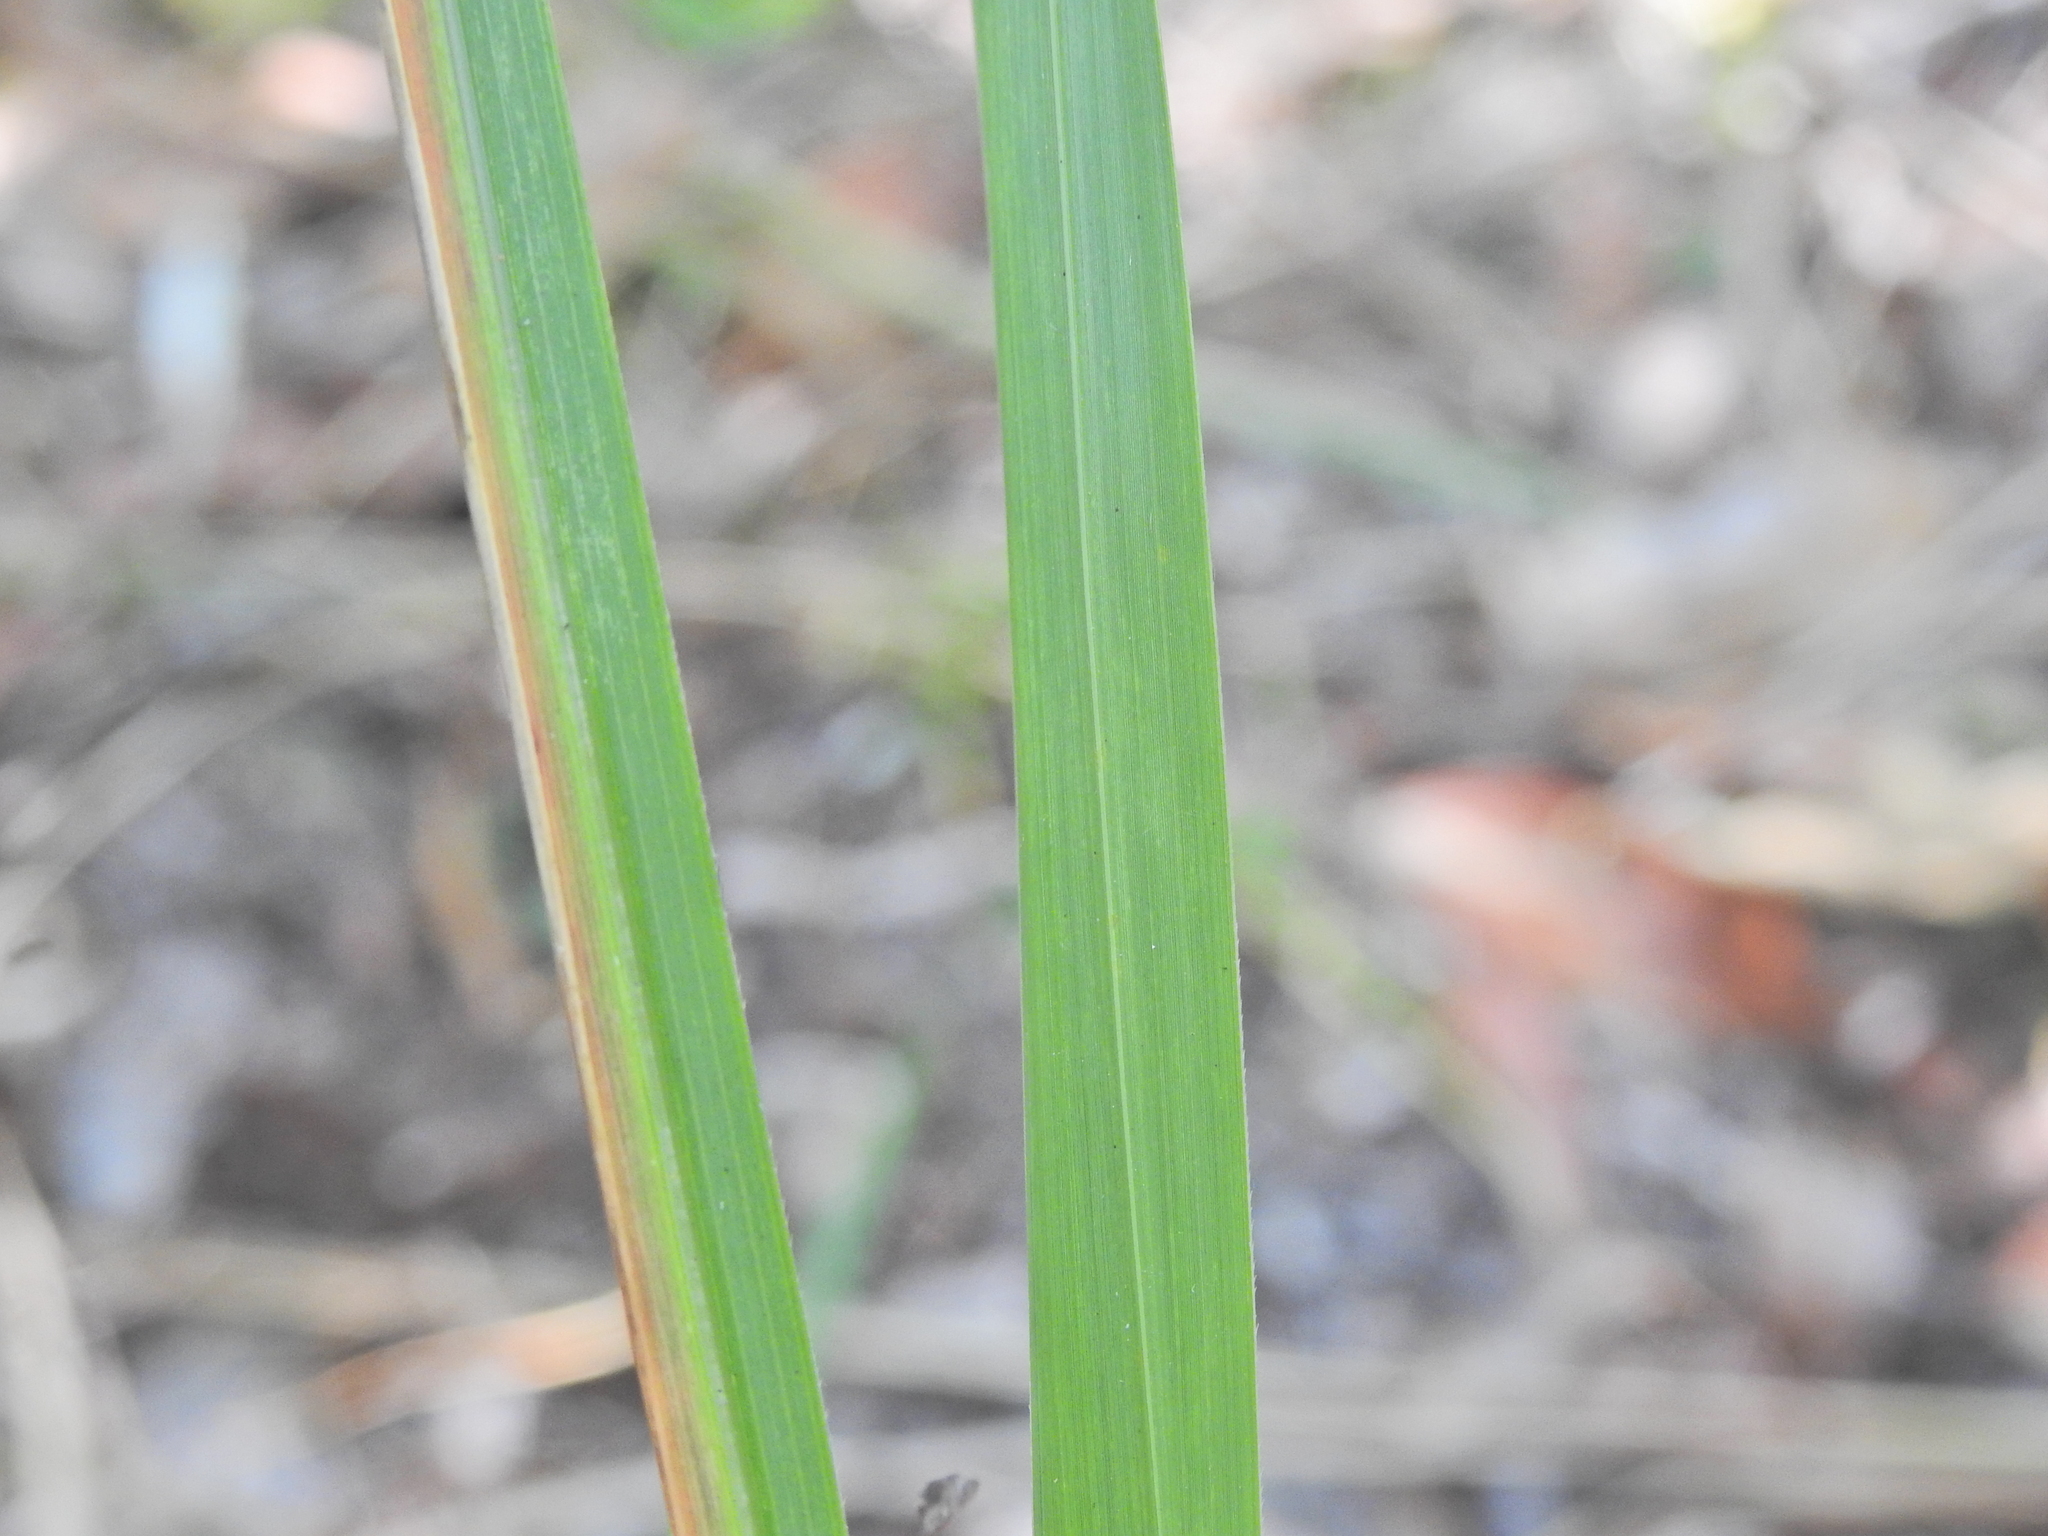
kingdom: Plantae
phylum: Tracheophyta
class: Liliopsida
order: Poales
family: Poaceae
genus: Imperata
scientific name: Imperata cylindrica
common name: Cogongrass
